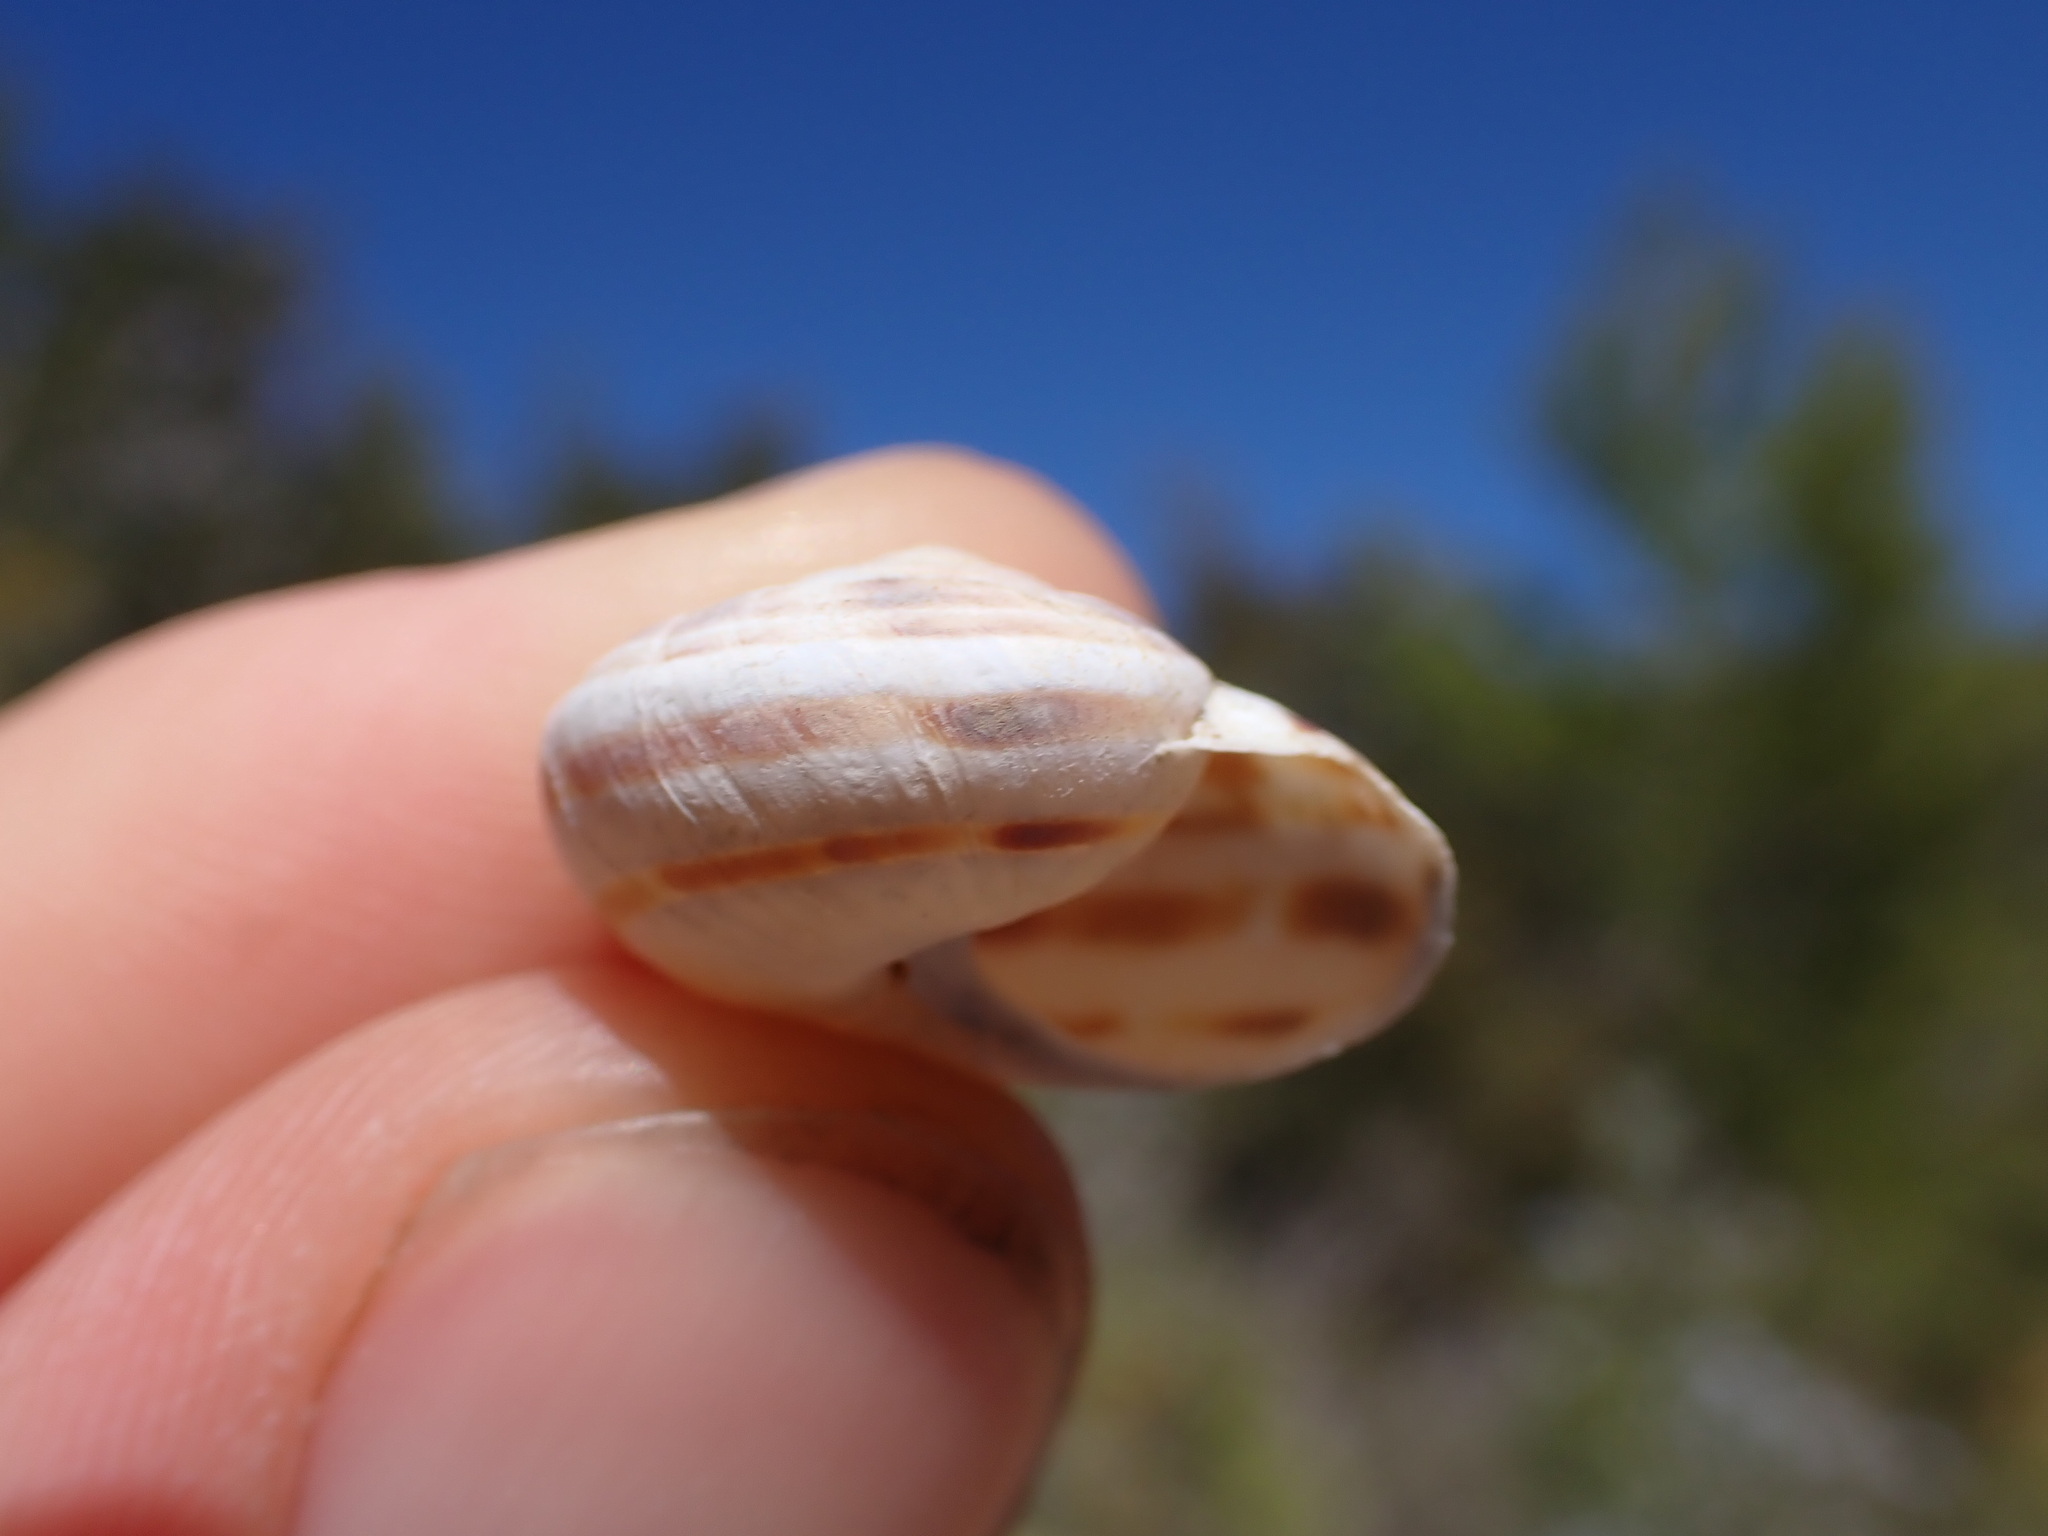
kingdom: Animalia
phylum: Mollusca
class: Gastropoda
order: Stylommatophora
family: Helicidae
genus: Pseudotachea
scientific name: Pseudotachea splendida
